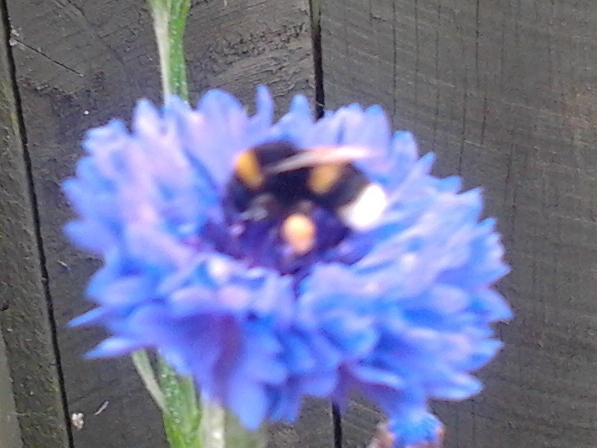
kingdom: Animalia
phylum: Arthropoda
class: Insecta
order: Hymenoptera
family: Apidae
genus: Bombus
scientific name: Bombus terrestris
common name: Buff-tailed bumblebee
